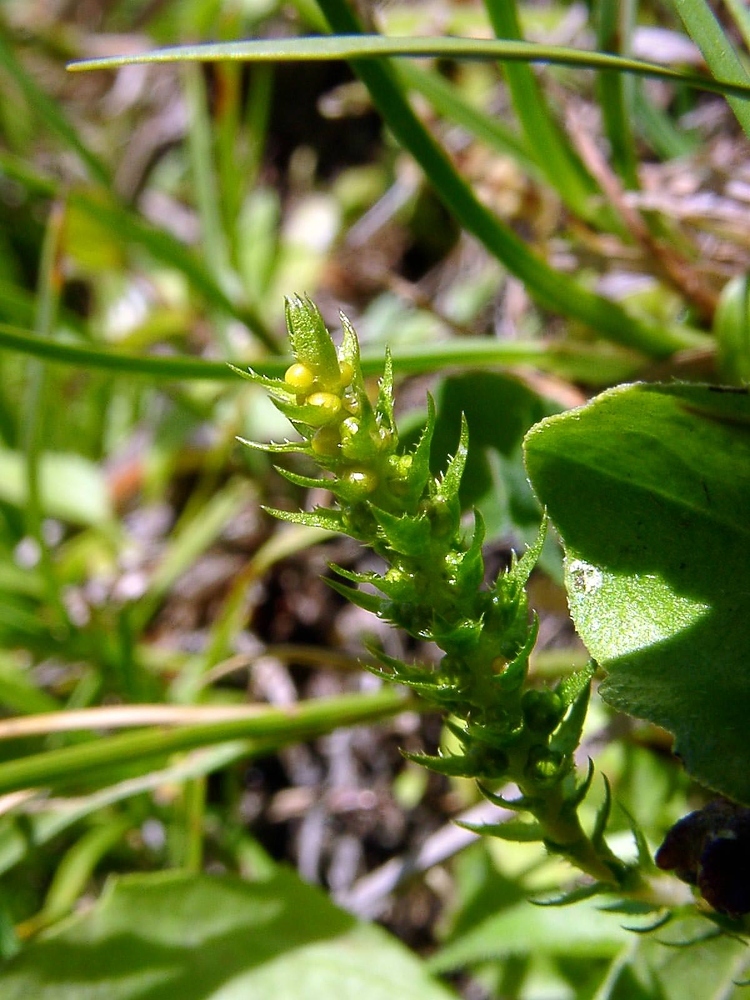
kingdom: Plantae
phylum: Tracheophyta
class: Lycopodiopsida
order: Selaginellales
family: Selaginellaceae
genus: Selaginella
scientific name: Selaginella selaginoides
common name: Prickly mountain-moss
